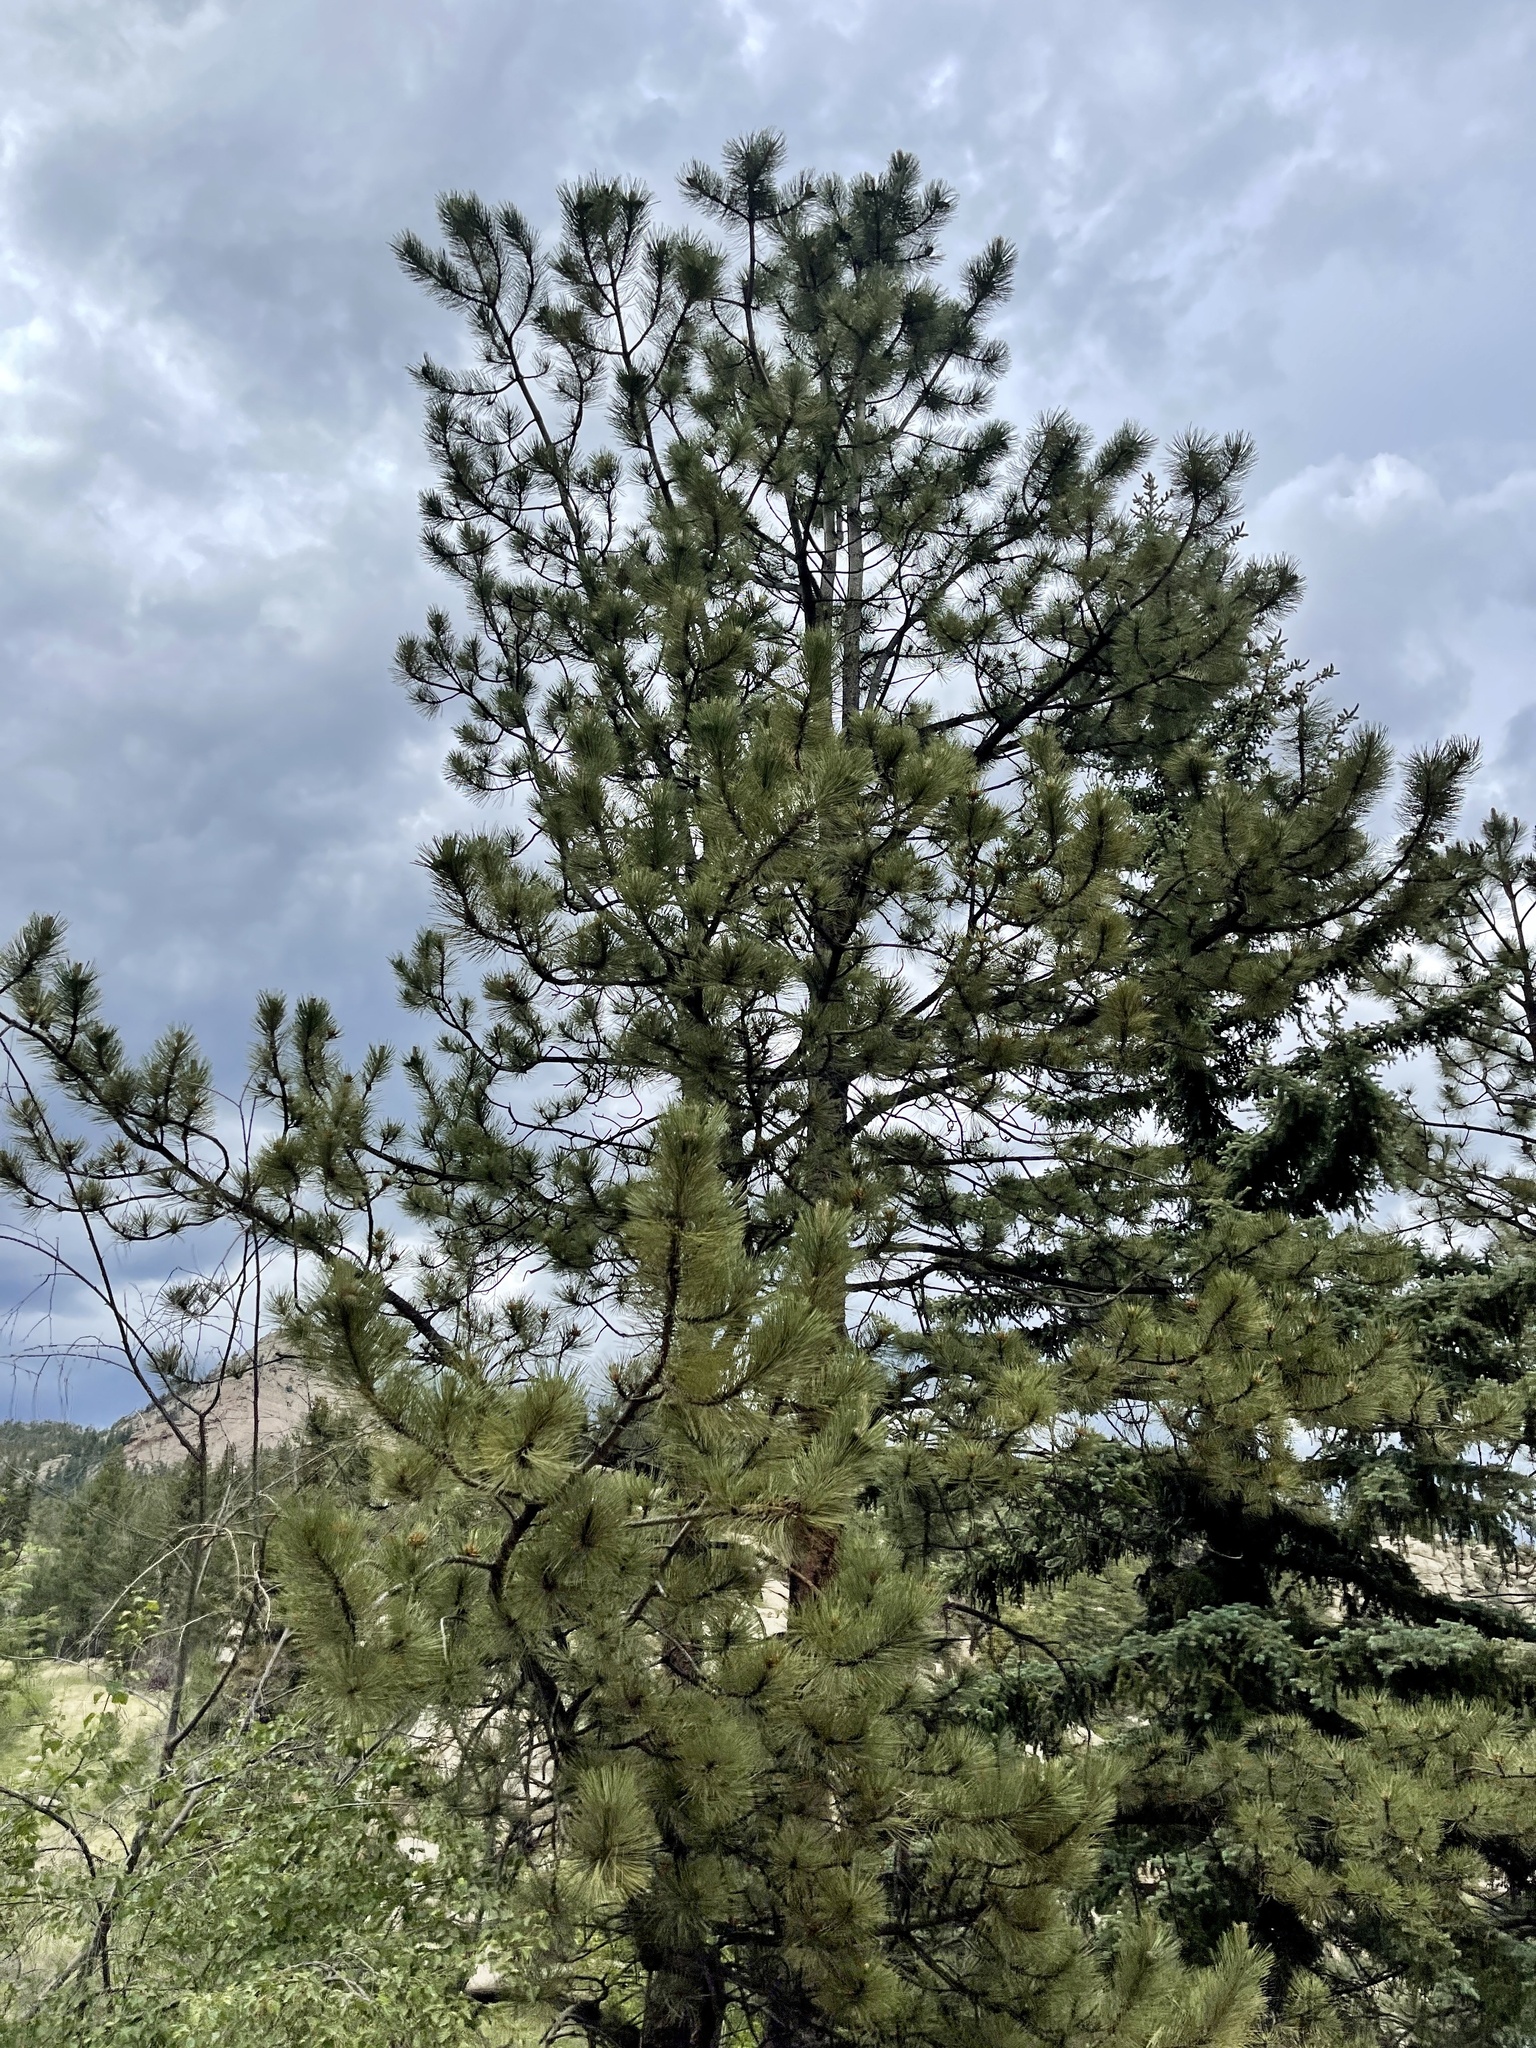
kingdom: Plantae
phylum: Tracheophyta
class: Pinopsida
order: Pinales
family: Pinaceae
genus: Pinus
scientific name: Pinus ponderosa
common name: Western yellow-pine
